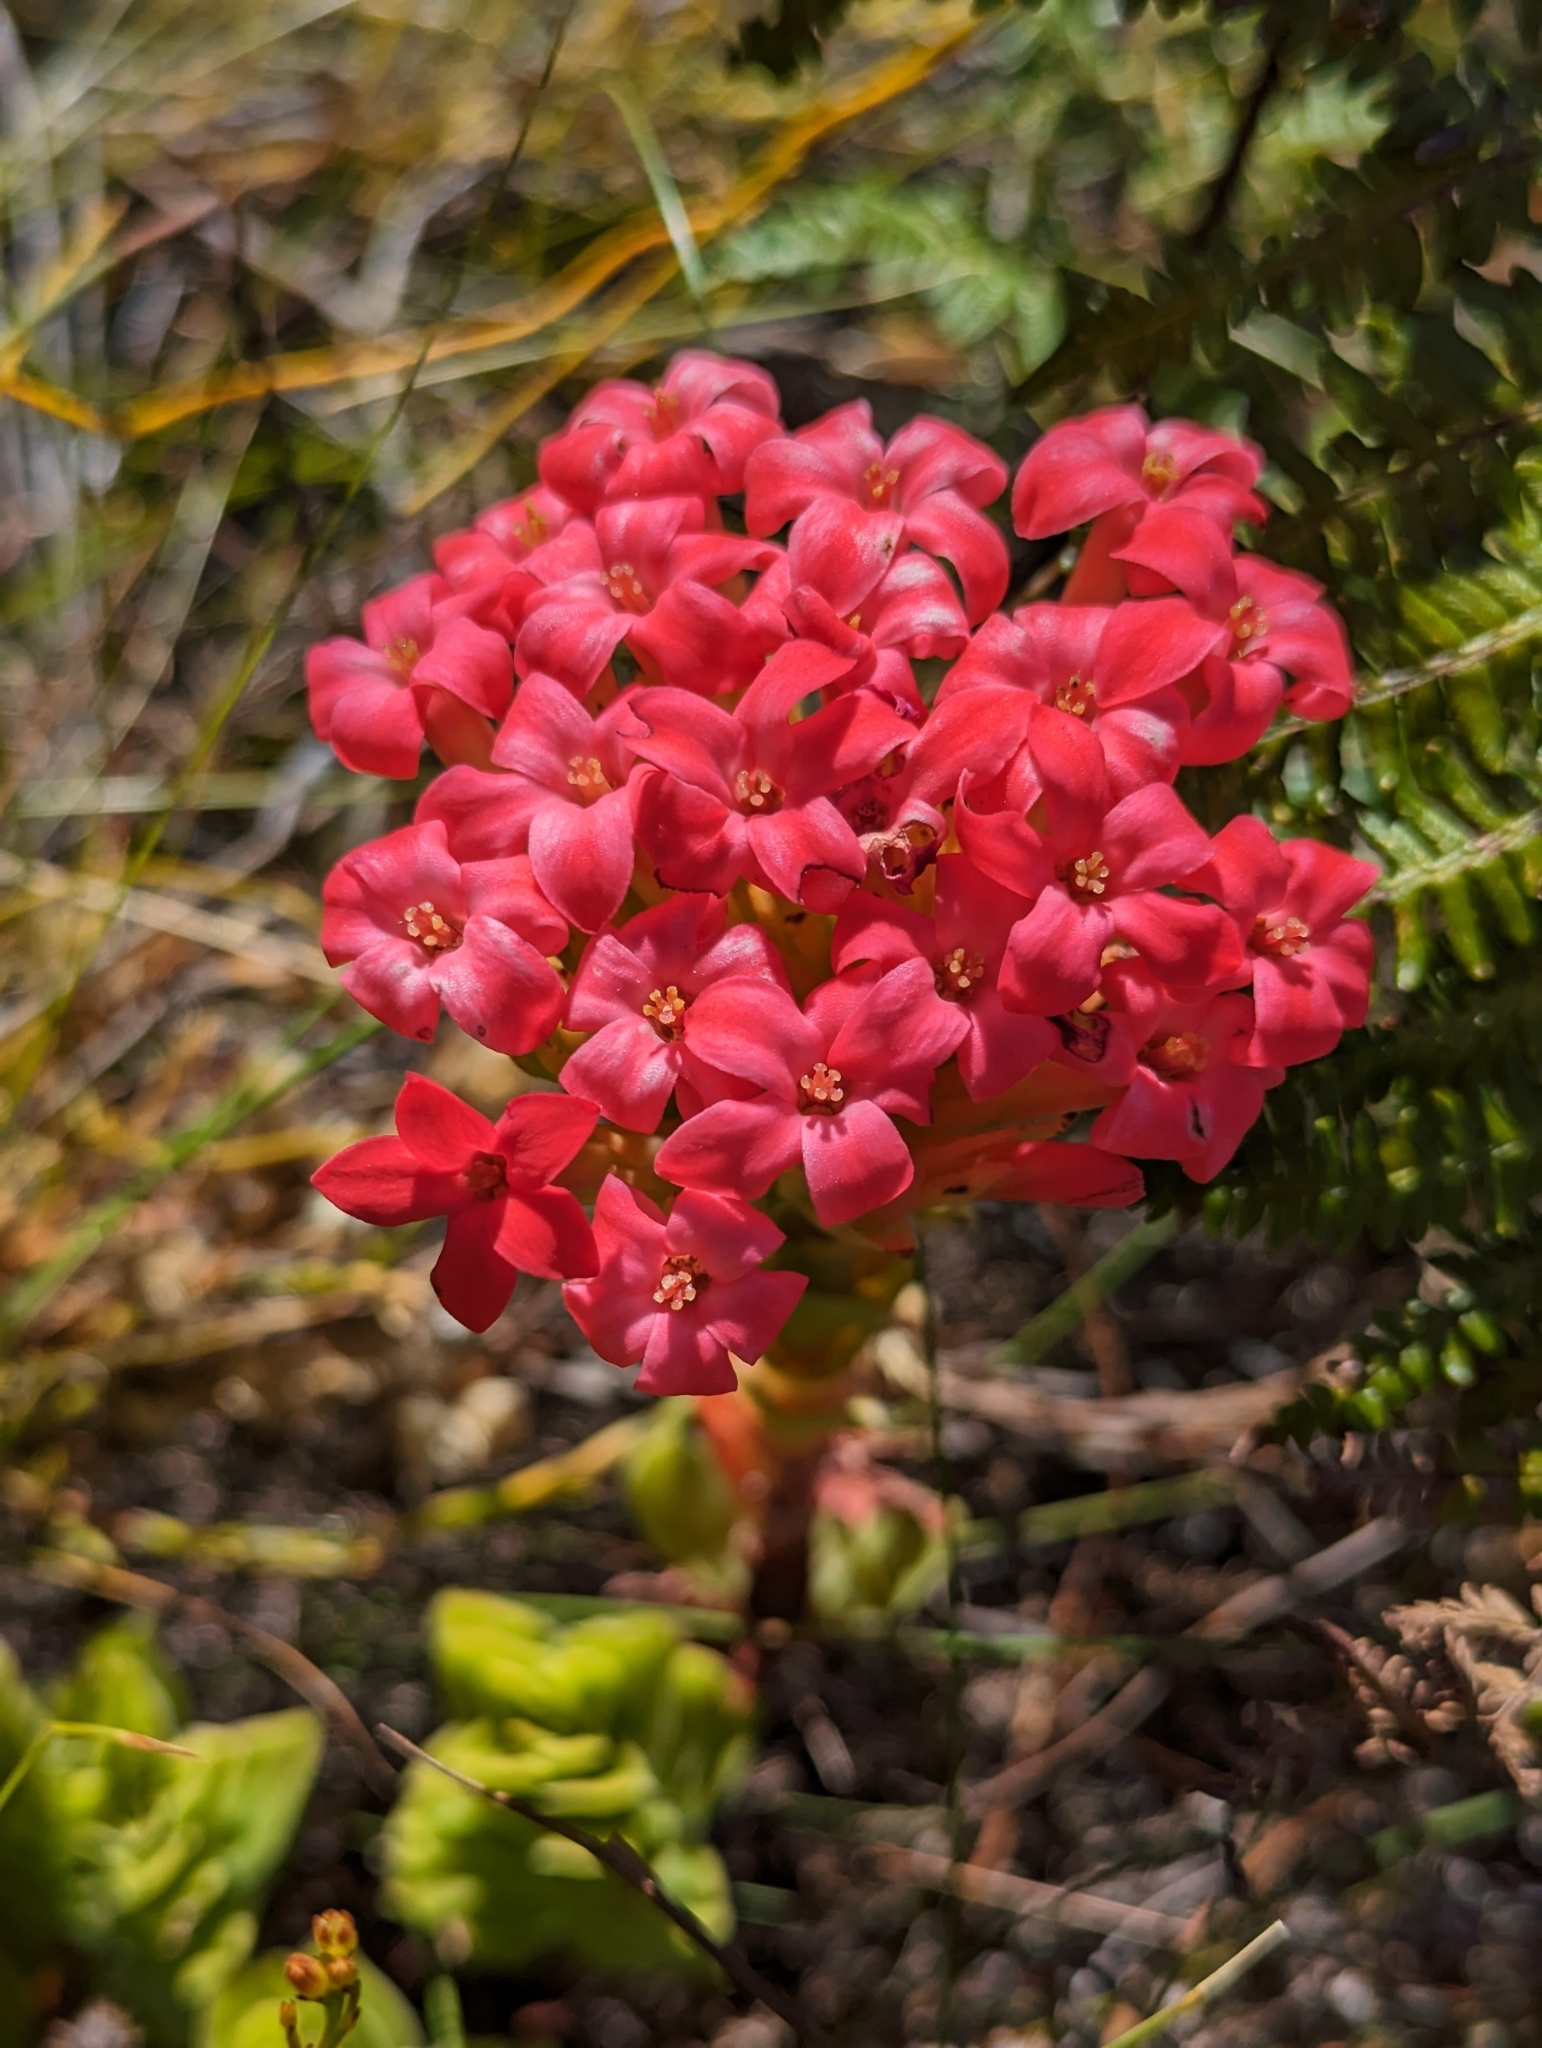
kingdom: Plantae
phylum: Tracheophyta
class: Magnoliopsida
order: Saxifragales
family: Crassulaceae
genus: Crassula
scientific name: Crassula coccinea
